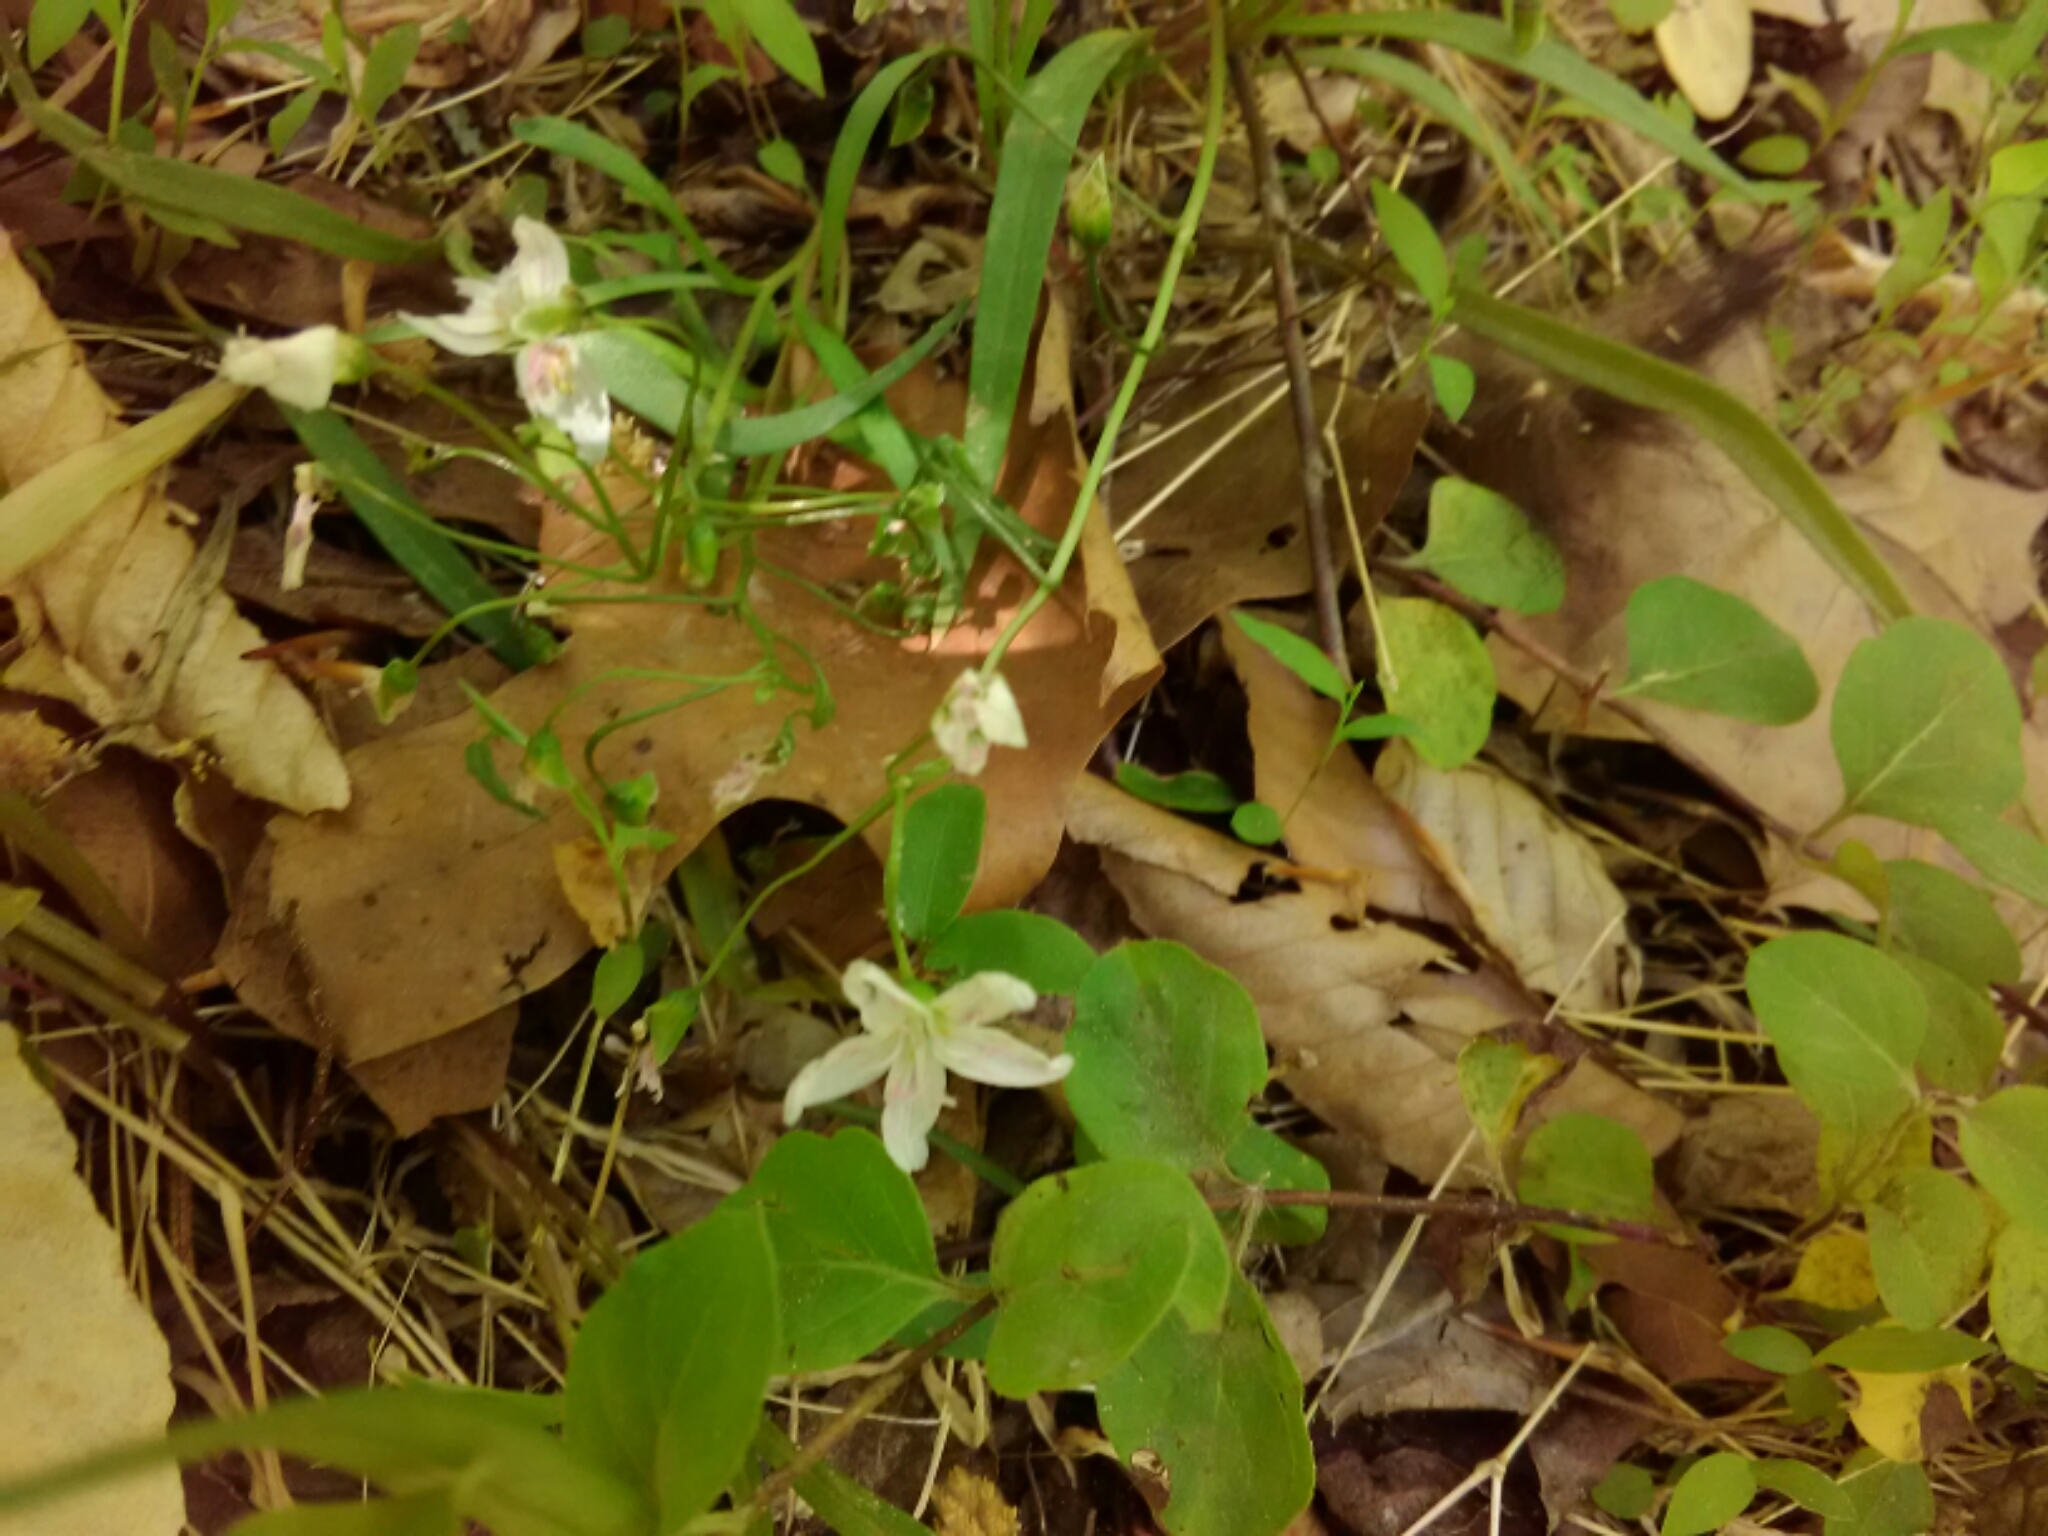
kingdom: Plantae
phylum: Tracheophyta
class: Magnoliopsida
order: Caryophyllales
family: Montiaceae
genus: Claytonia
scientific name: Claytonia virginica
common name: Virginia springbeauty
